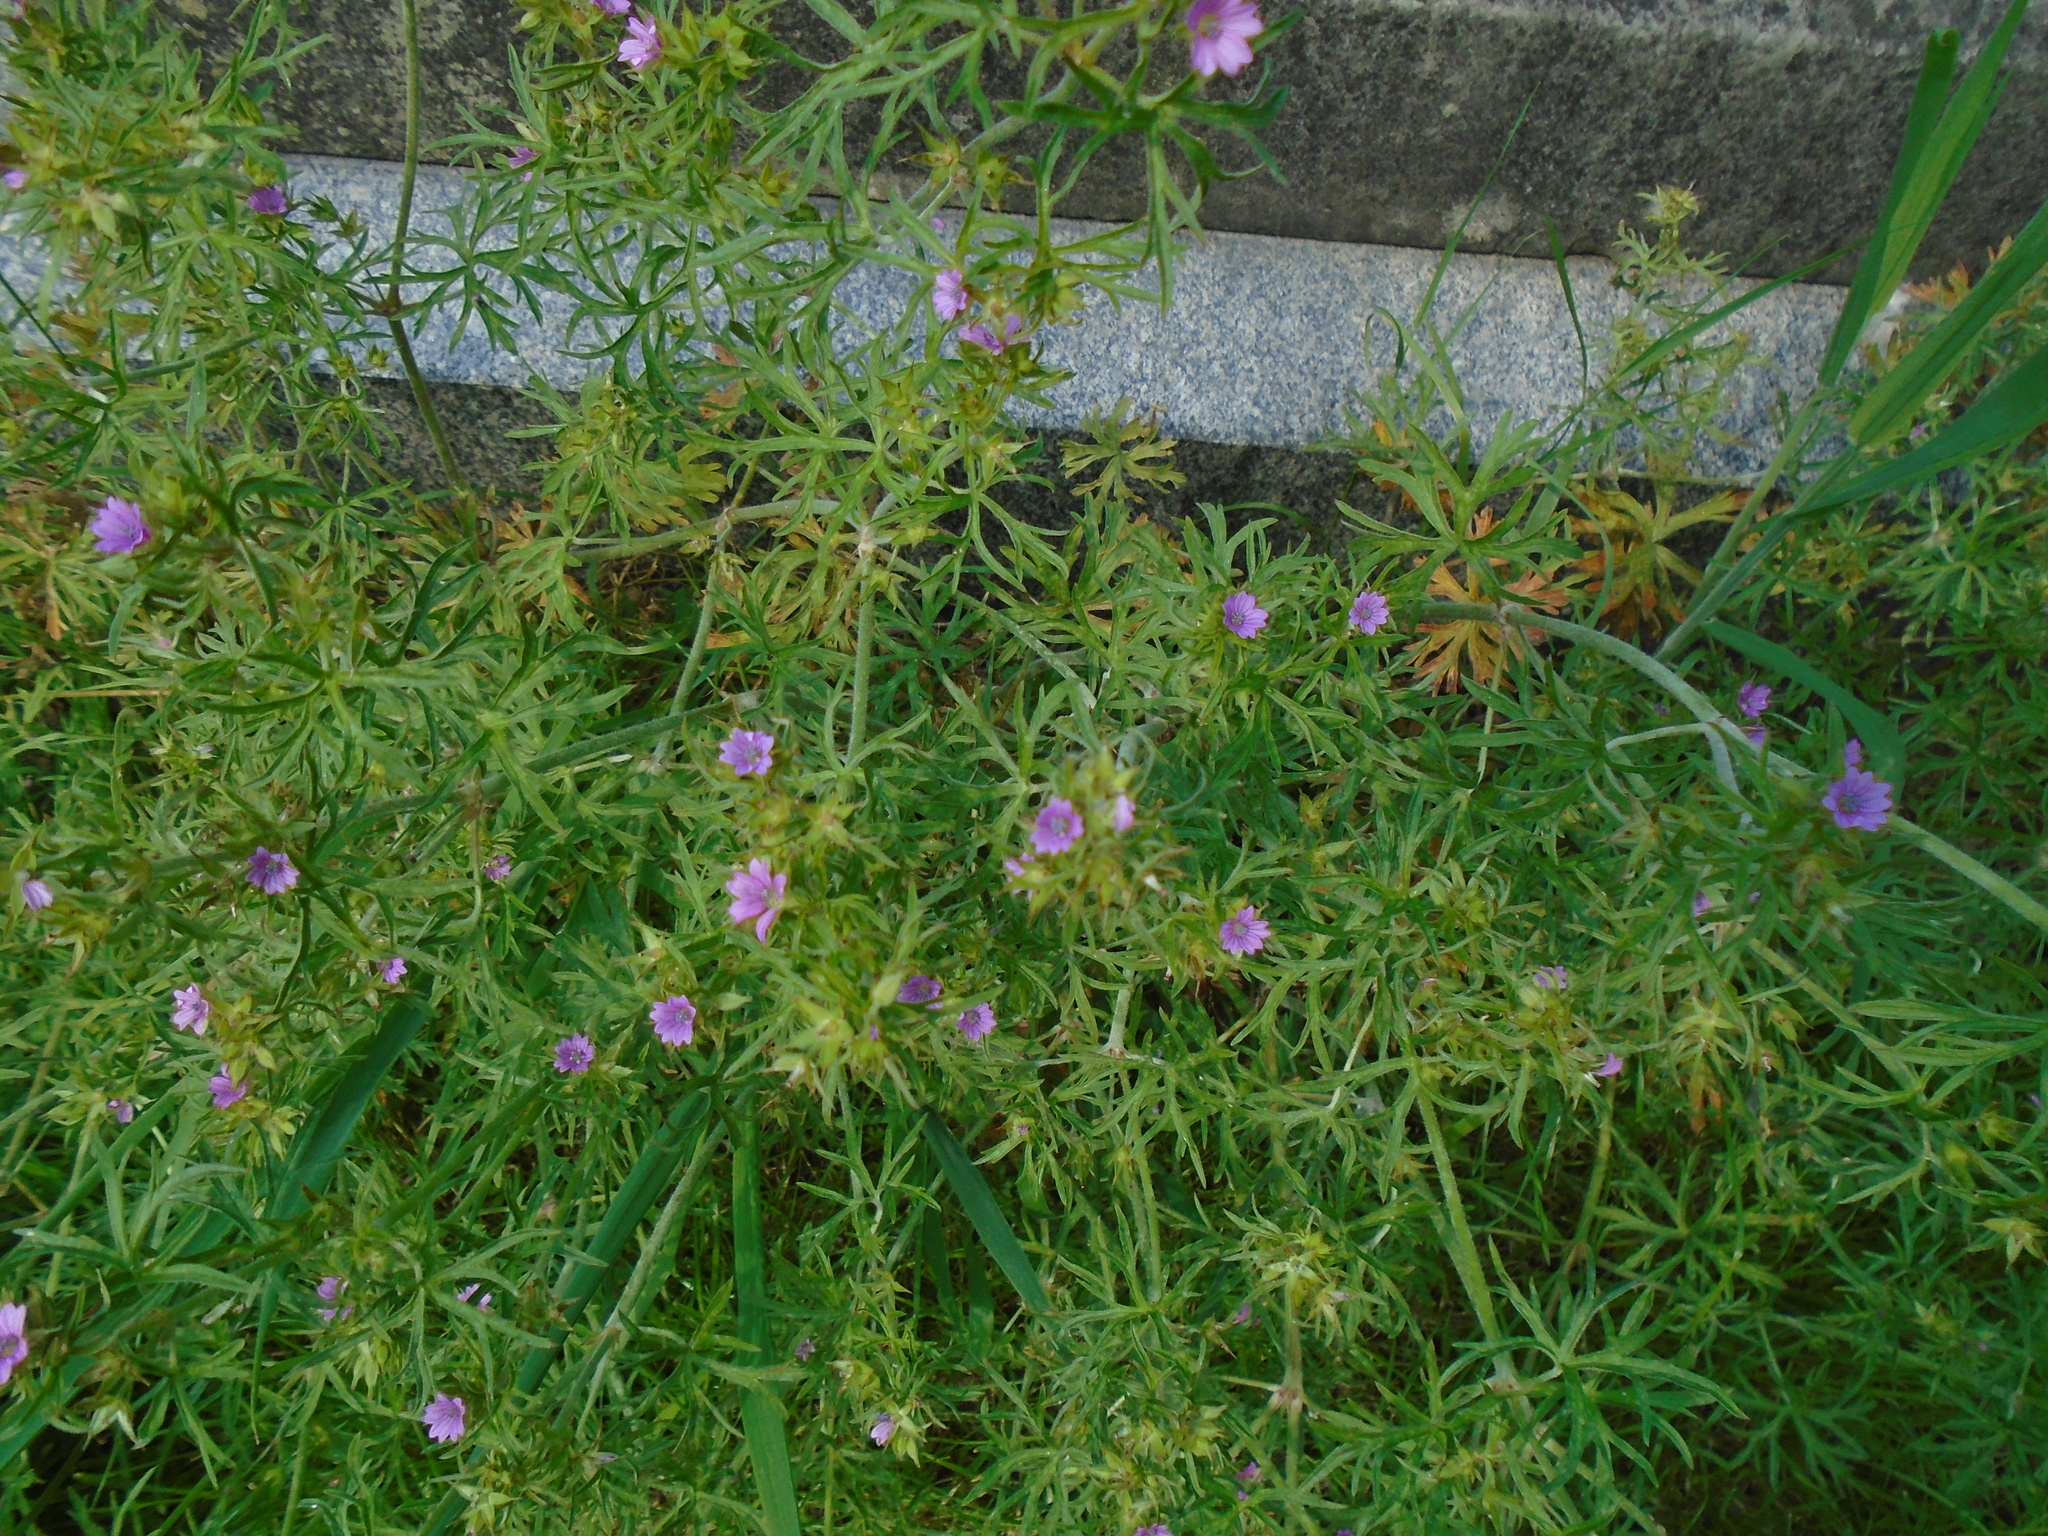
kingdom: Plantae
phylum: Tracheophyta
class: Magnoliopsida
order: Geraniales
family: Geraniaceae
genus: Geranium
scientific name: Geranium dissectum
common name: Cut-leaved crane's-bill
